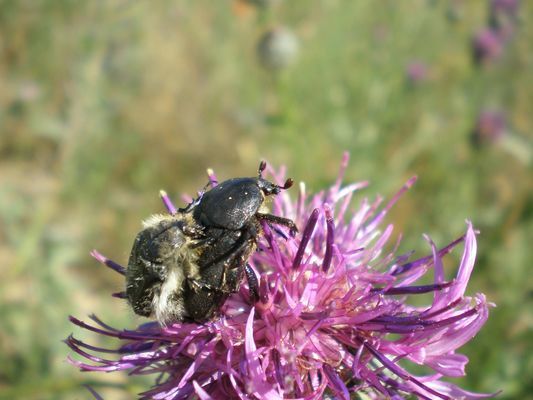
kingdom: Animalia
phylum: Arthropoda
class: Insecta
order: Coleoptera
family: Scarabaeidae
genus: Protaetia
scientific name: Protaetia morio
